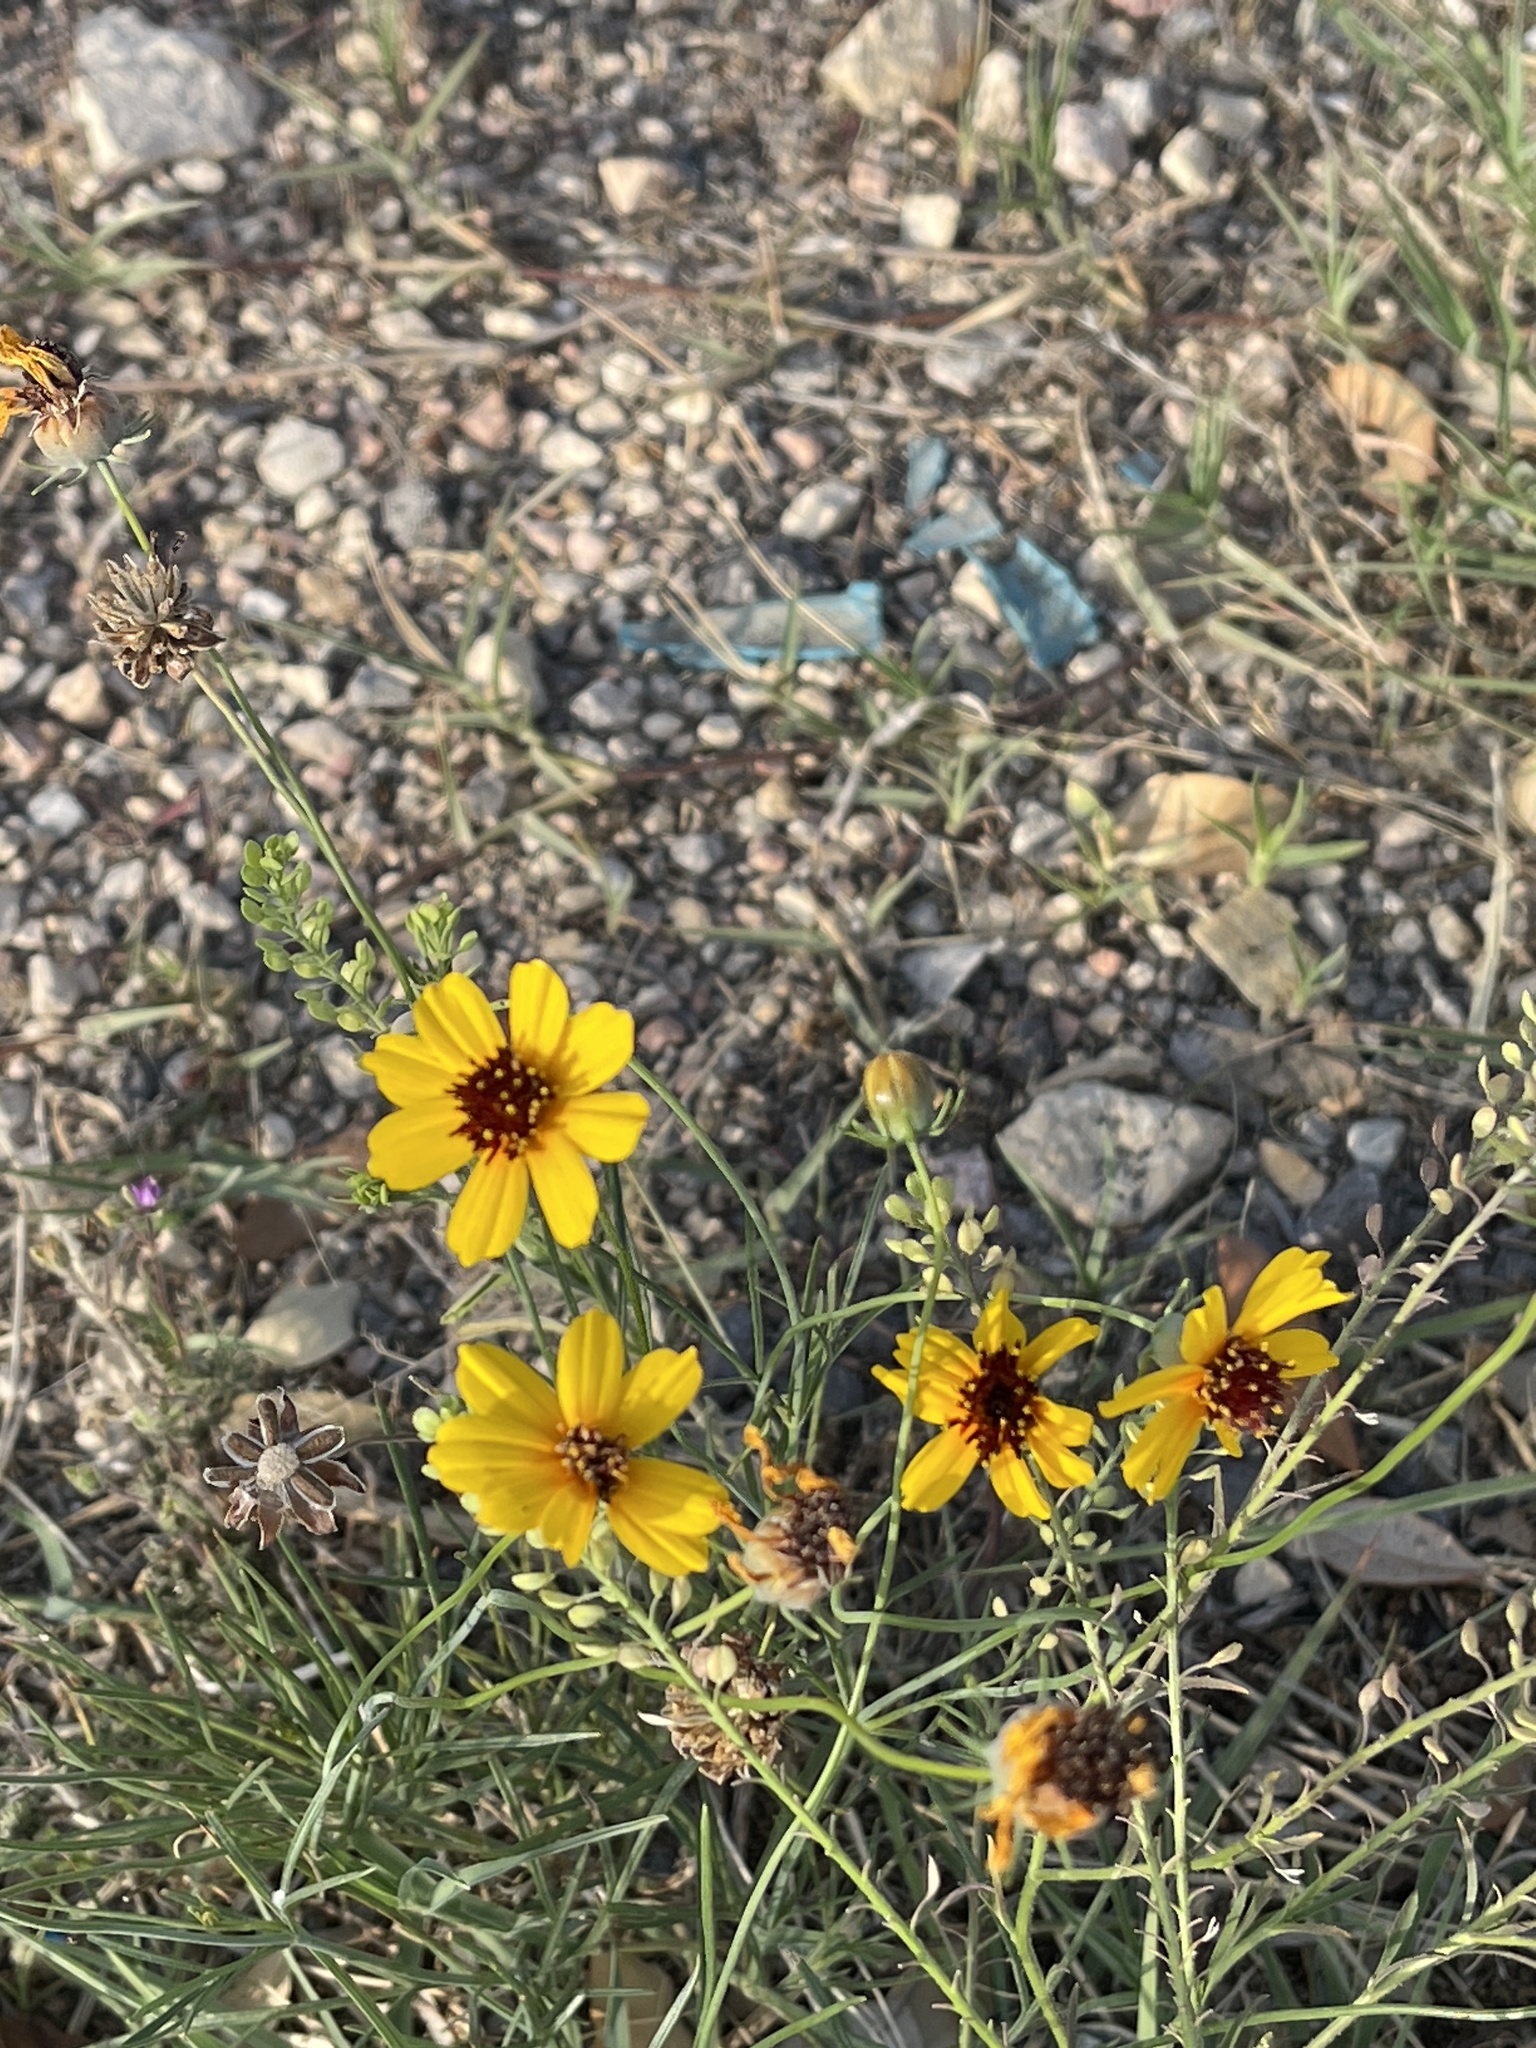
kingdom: Plantae
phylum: Tracheophyta
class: Magnoliopsida
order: Asterales
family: Asteraceae
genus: Thelesperma
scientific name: Thelesperma filifolium
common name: Stiff greenthread
